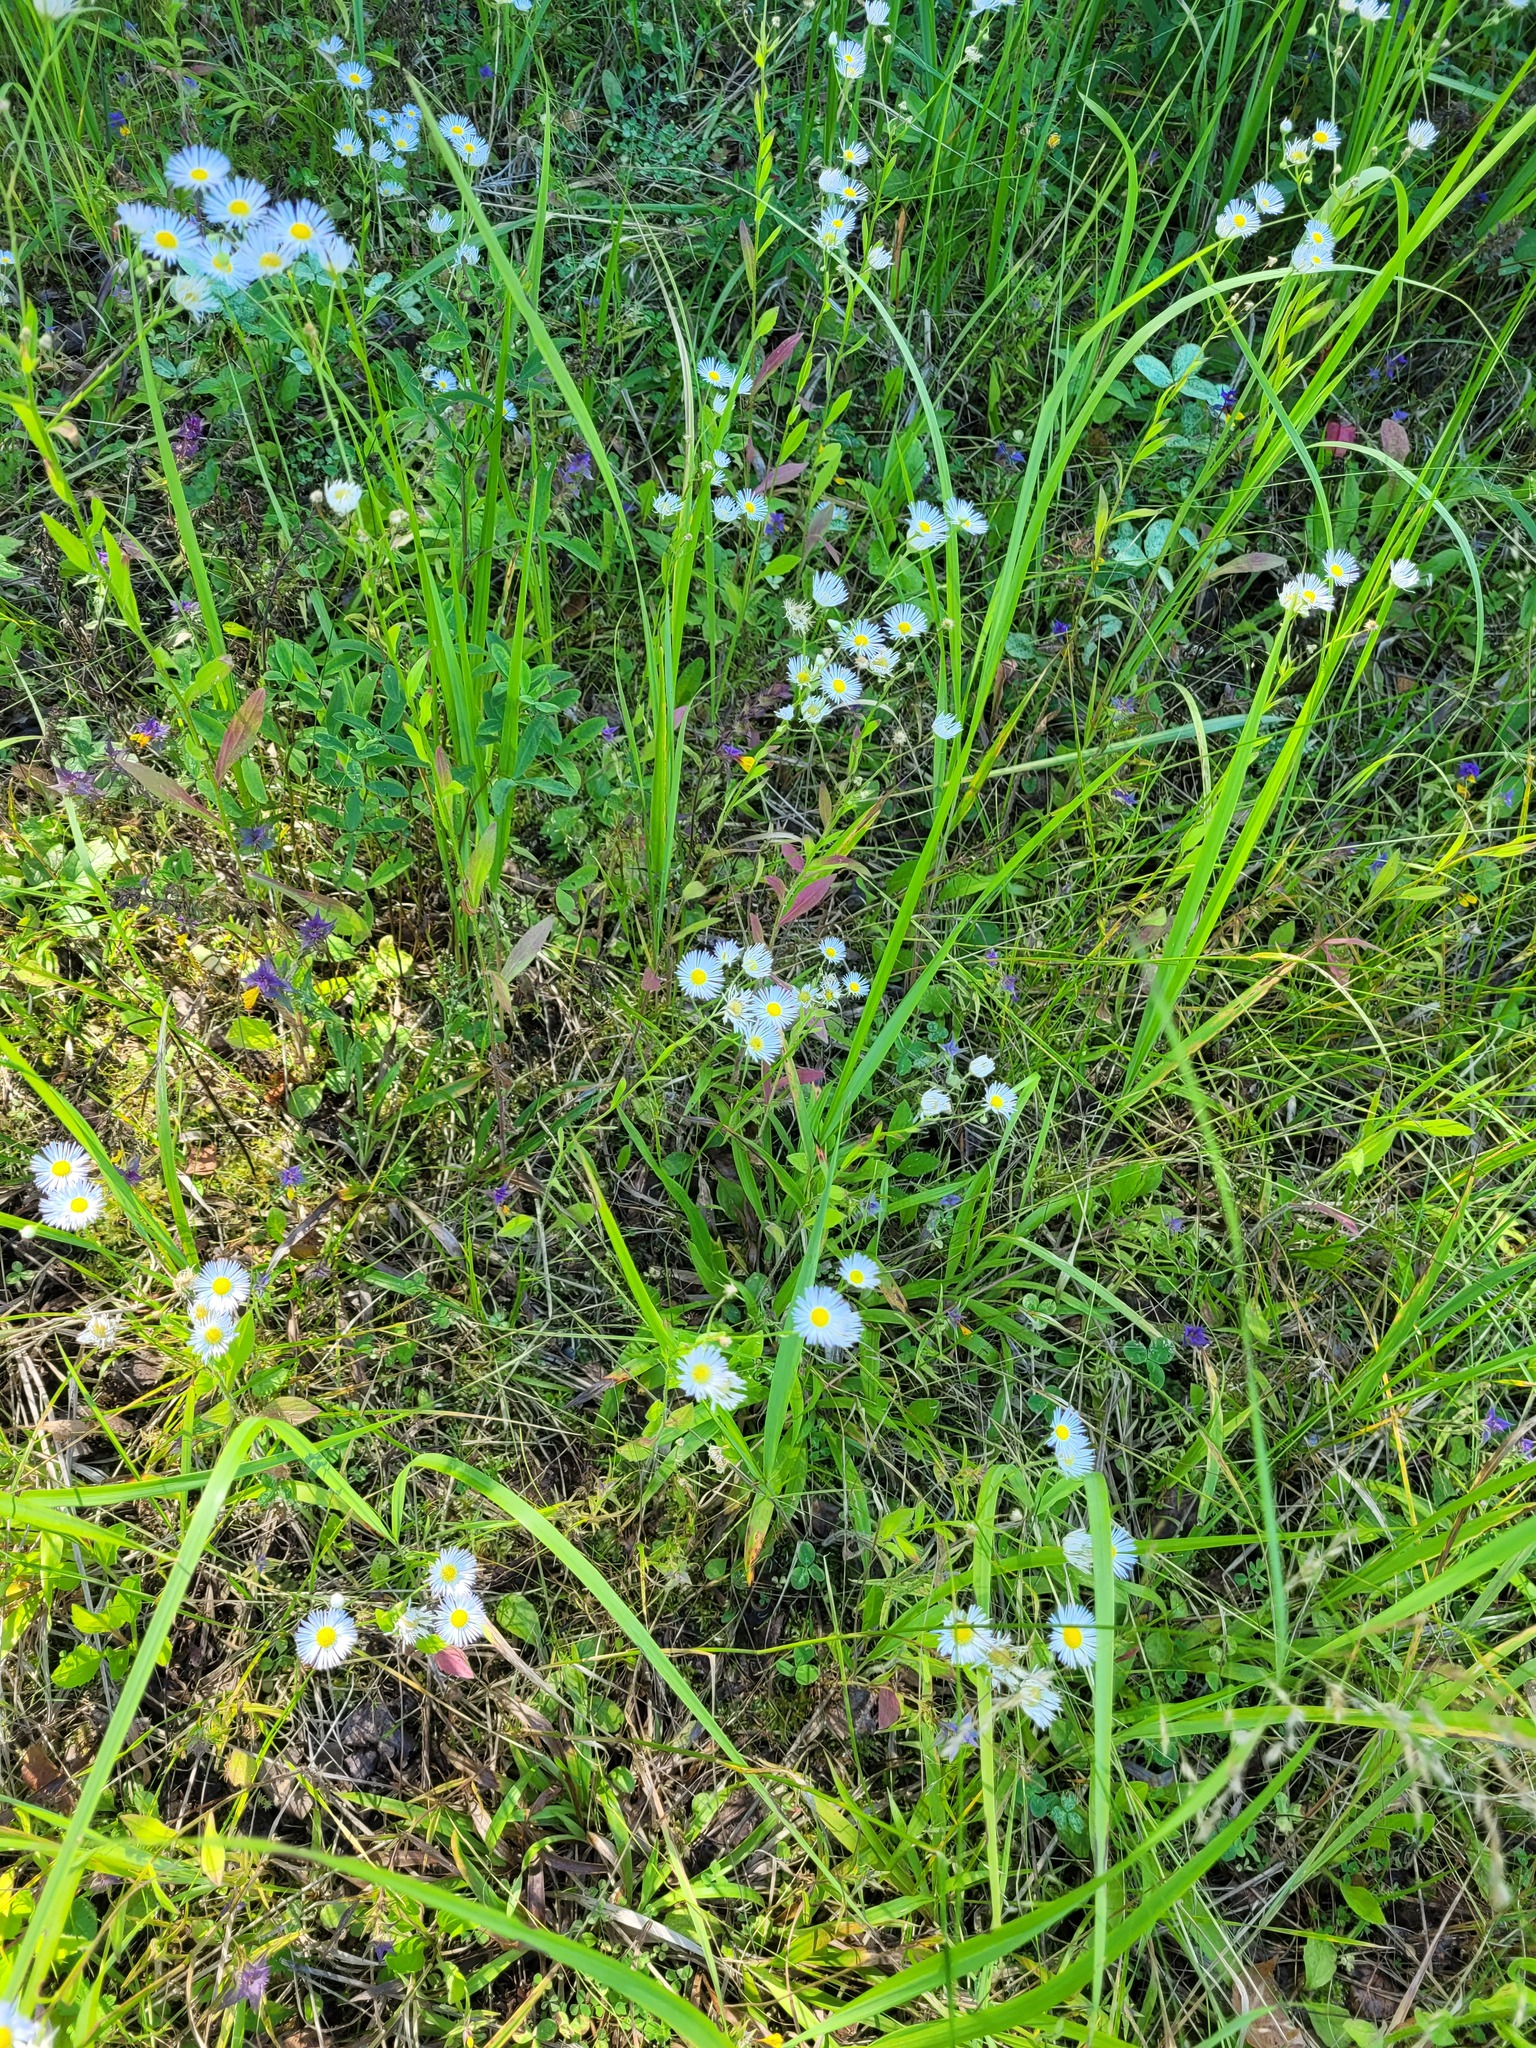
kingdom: Plantae
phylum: Tracheophyta
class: Magnoliopsida
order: Asterales
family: Asteraceae
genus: Erigeron
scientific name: Erigeron annuus
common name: Tall fleabane
